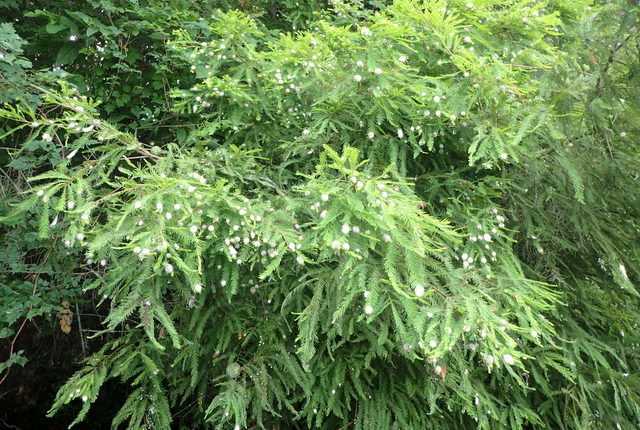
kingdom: Animalia
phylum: Arthropoda
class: Insecta
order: Diptera
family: Cecidomyiidae
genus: Taxodiomyia
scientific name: Taxodiomyia cupressiananassa
